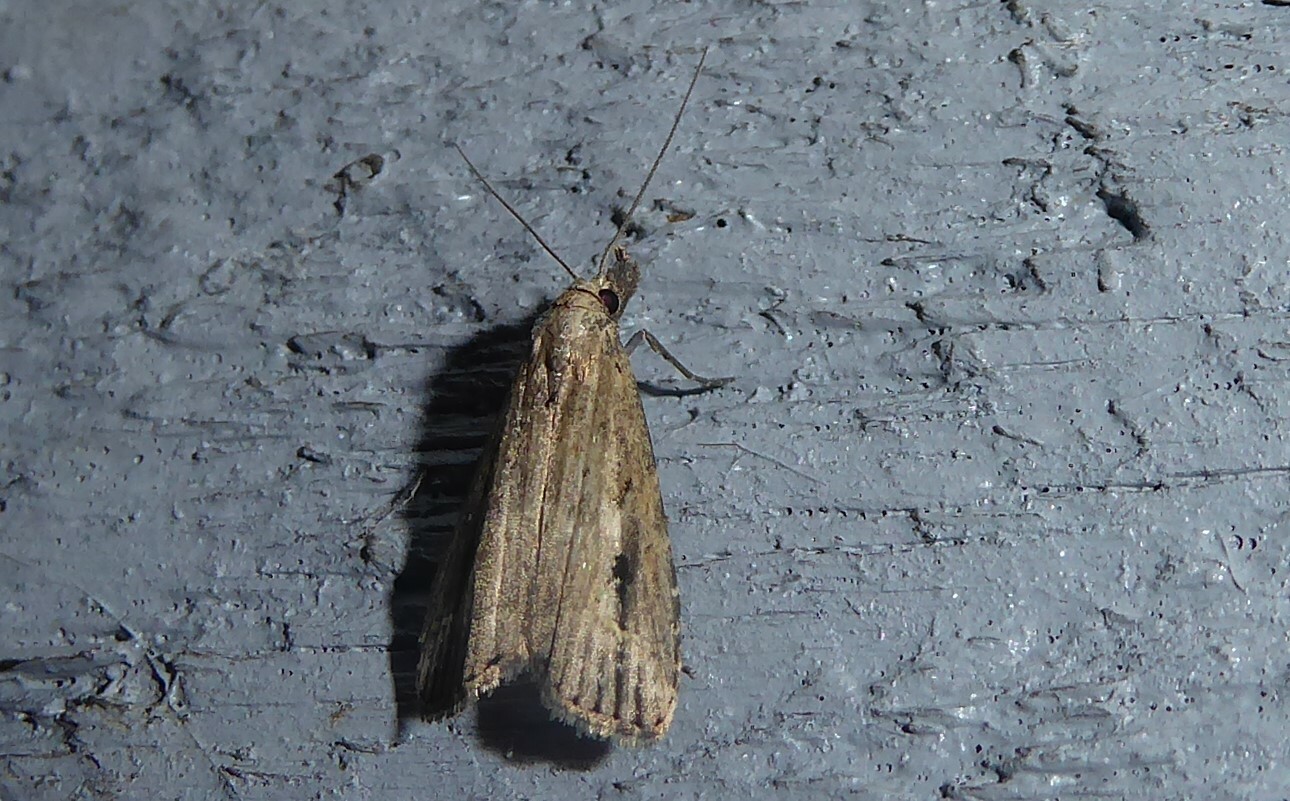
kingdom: Animalia
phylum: Arthropoda
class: Insecta
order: Lepidoptera
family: Erebidae
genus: Schrankia
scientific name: Schrankia costaestrigalis
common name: Pinion-streaked snout
